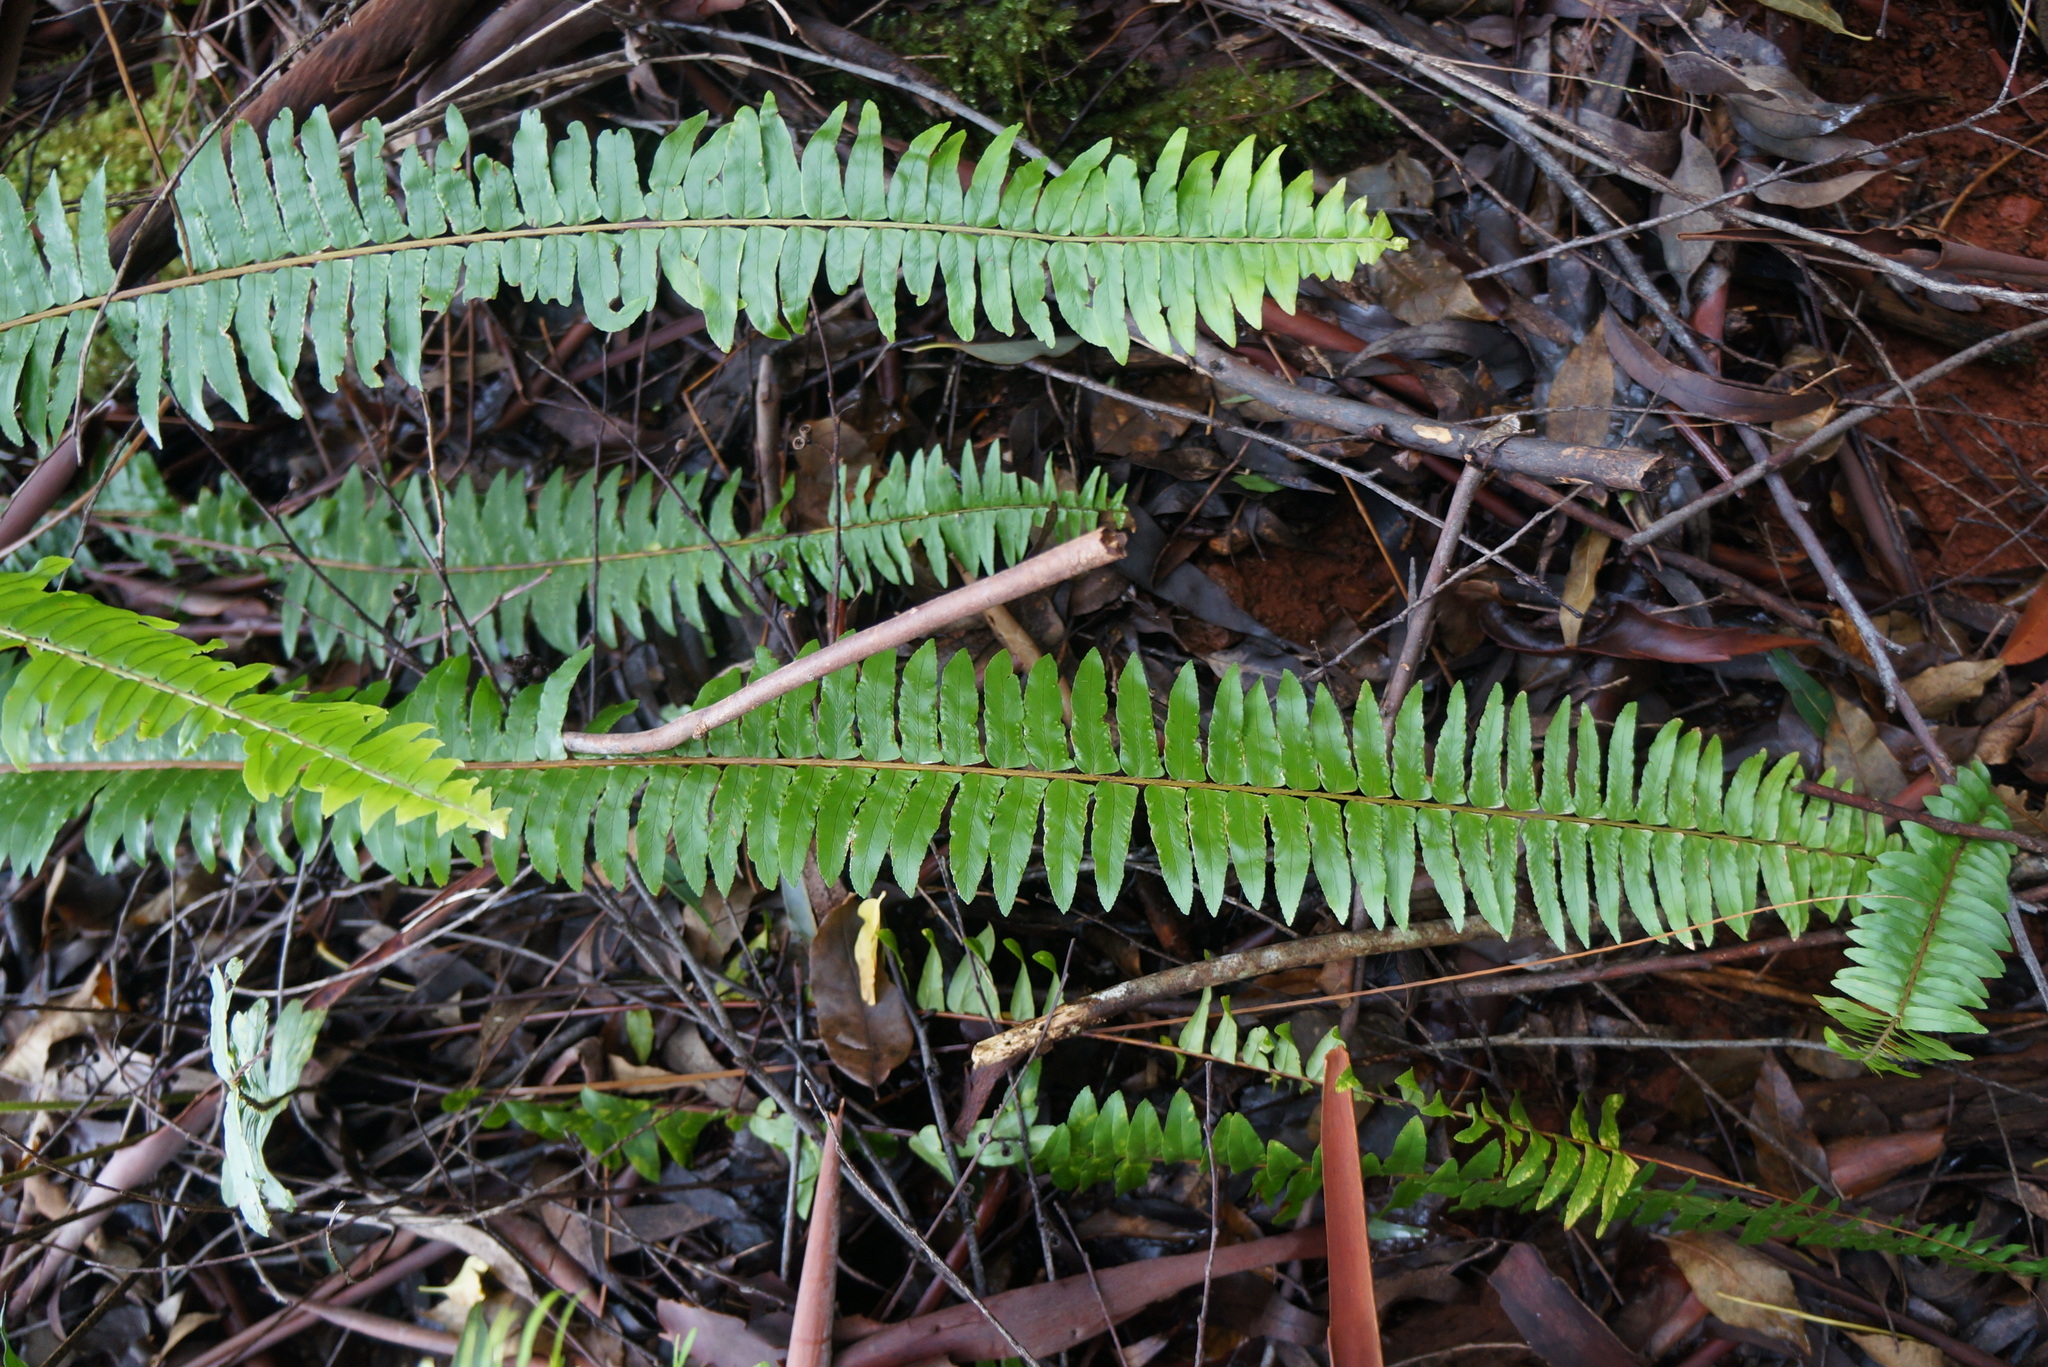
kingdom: Plantae
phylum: Tracheophyta
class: Polypodiopsida
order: Polypodiales
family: Nephrolepidaceae
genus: Nephrolepis
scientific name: Nephrolepis exaltata
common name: Sword fern
